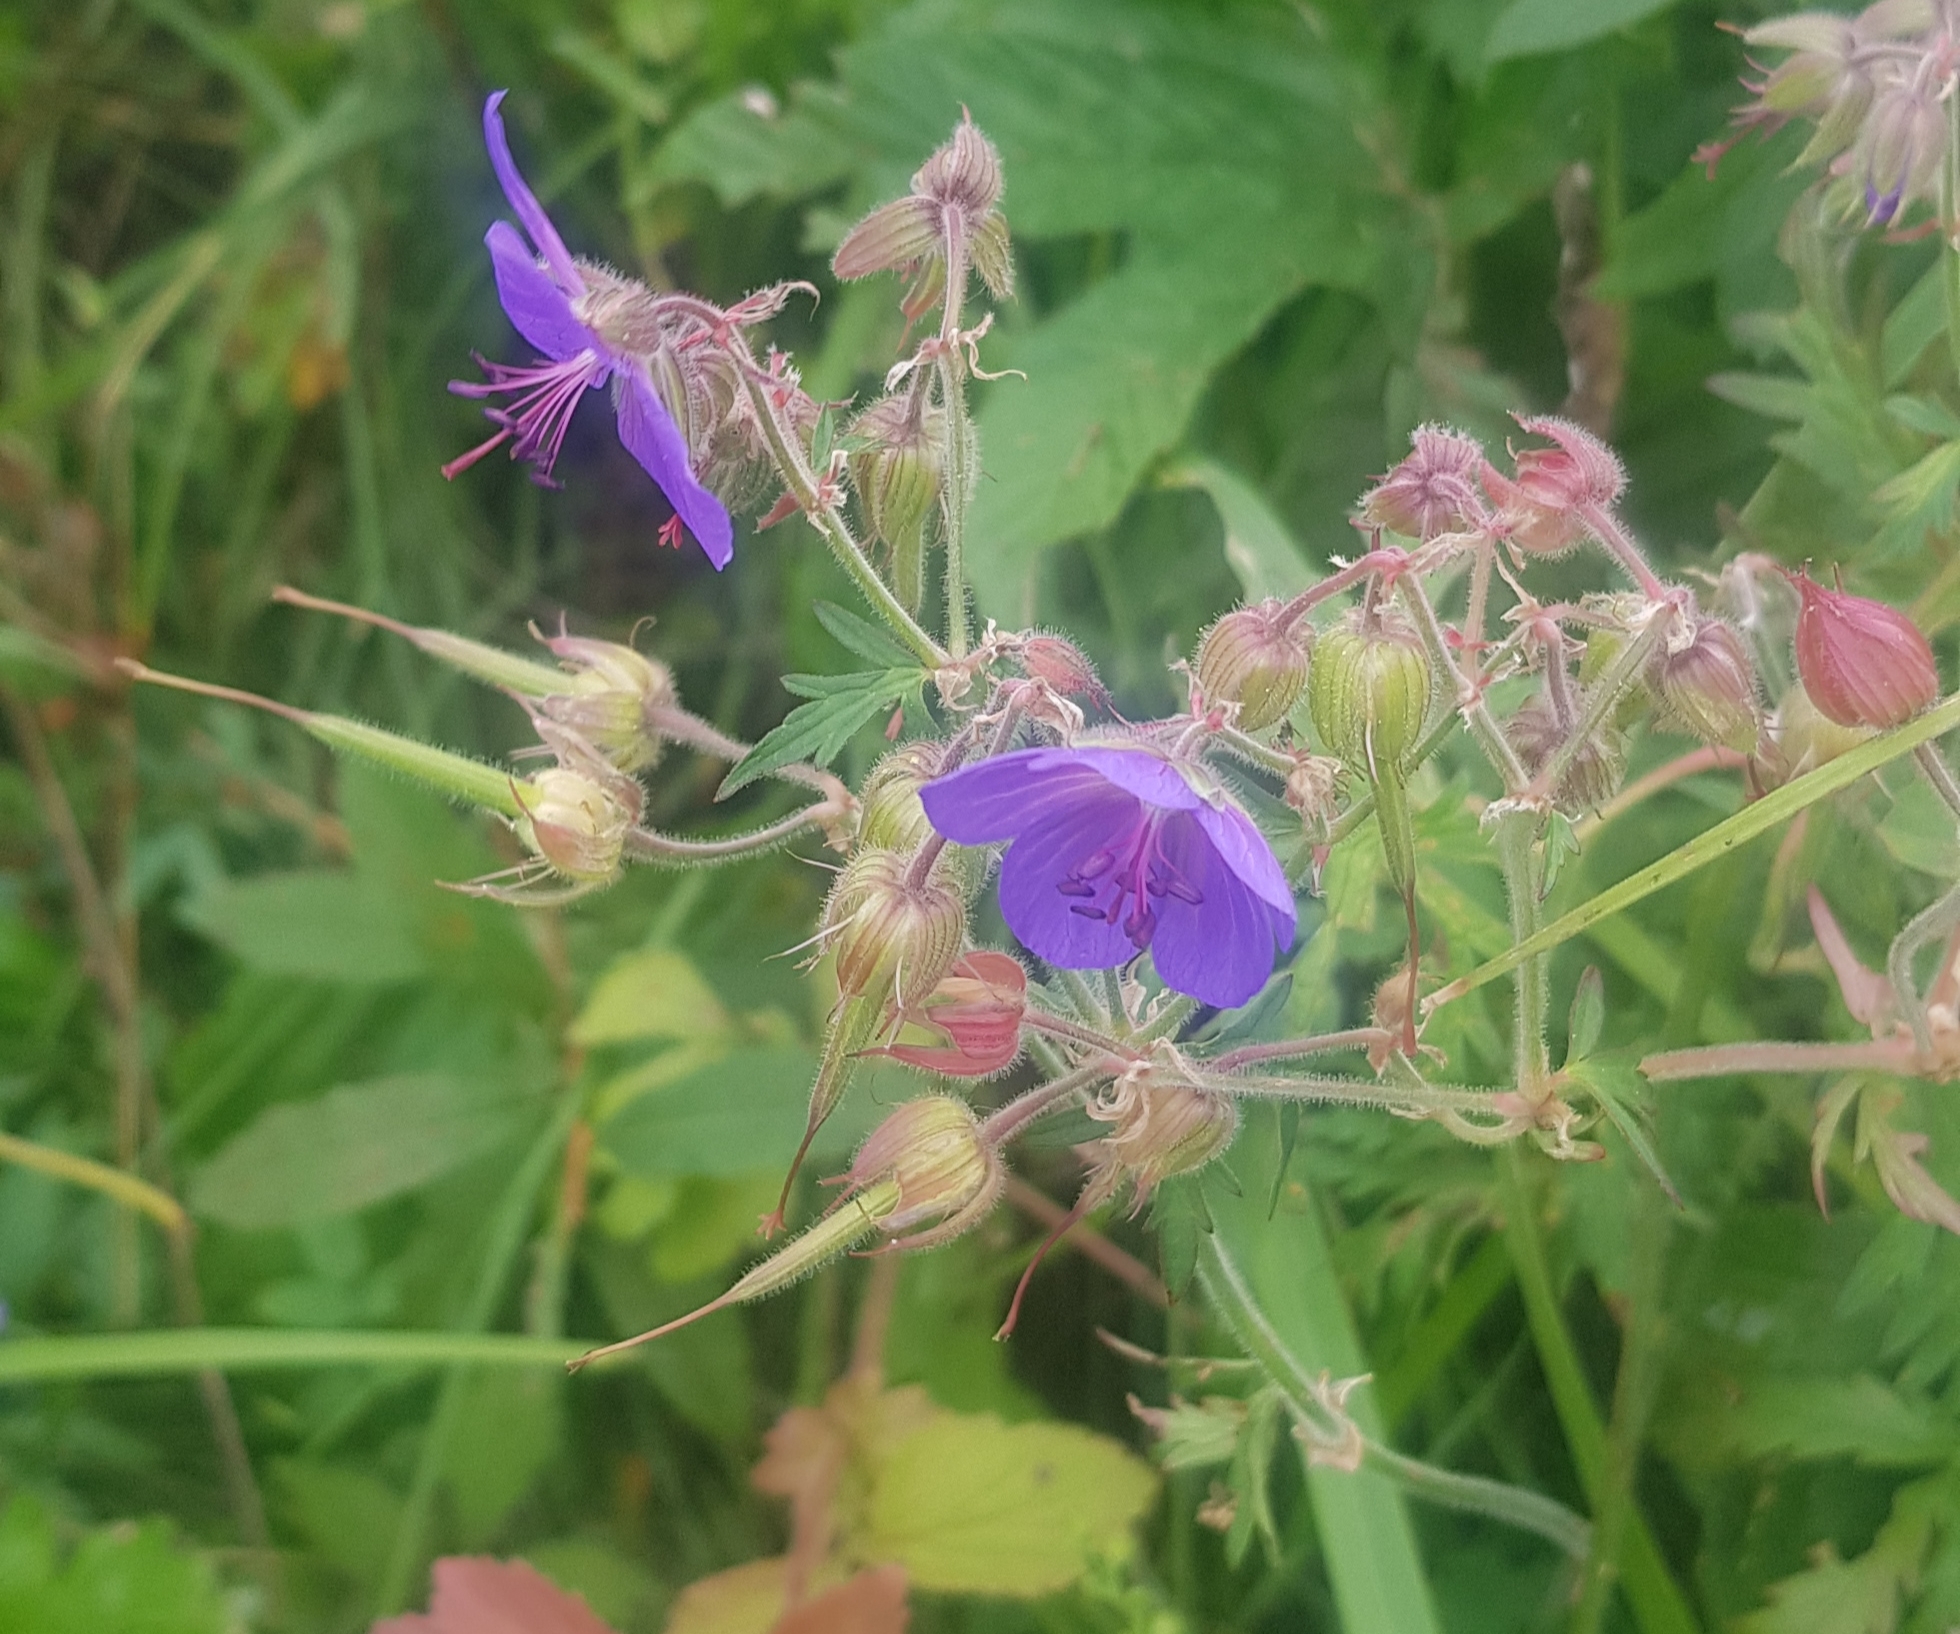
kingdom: Plantae
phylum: Tracheophyta
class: Magnoliopsida
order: Geraniales
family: Geraniaceae
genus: Geranium
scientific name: Geranium pratense
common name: Meadow crane's-bill
